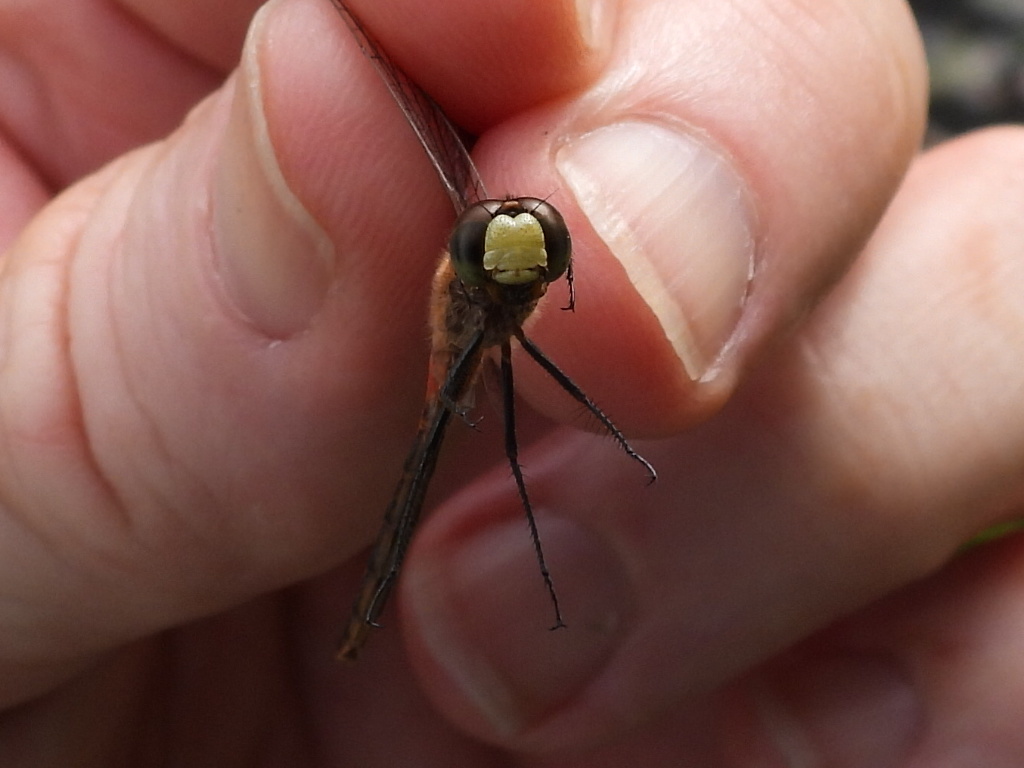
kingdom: Animalia
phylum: Arthropoda
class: Insecta
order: Odonata
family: Libellulidae
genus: Sympetrum
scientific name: Sympetrum obtrusum
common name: White-faced meadowhawk
